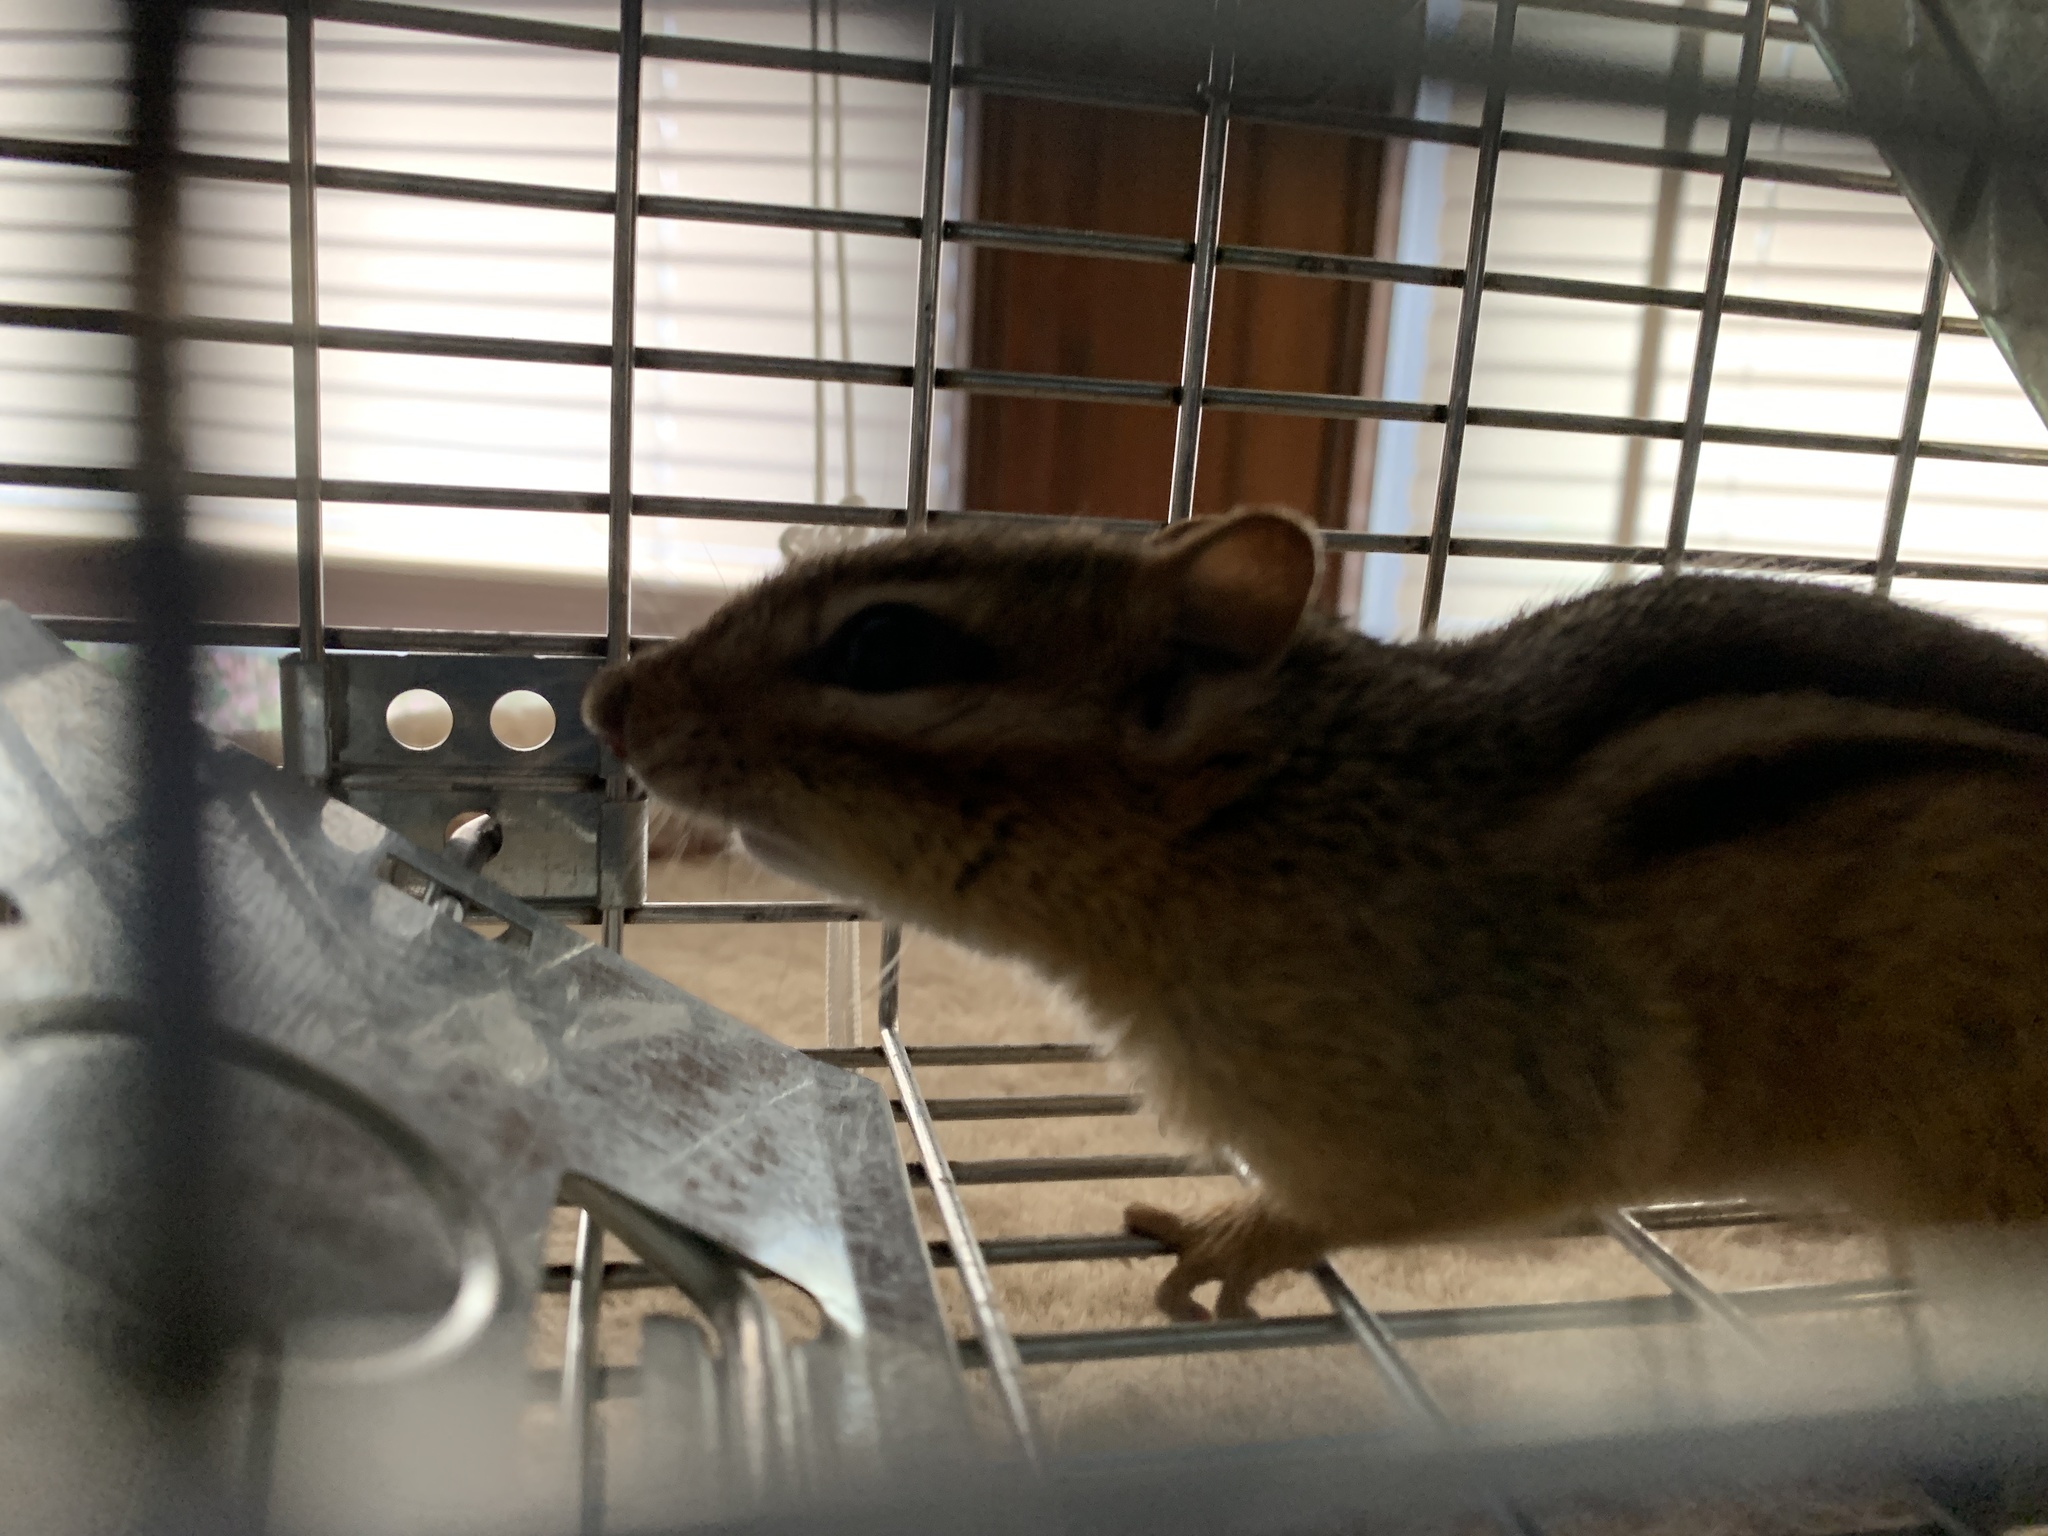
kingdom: Animalia
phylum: Chordata
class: Mammalia
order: Rodentia
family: Sciuridae
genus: Tamias
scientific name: Tamias striatus
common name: Eastern chipmunk
